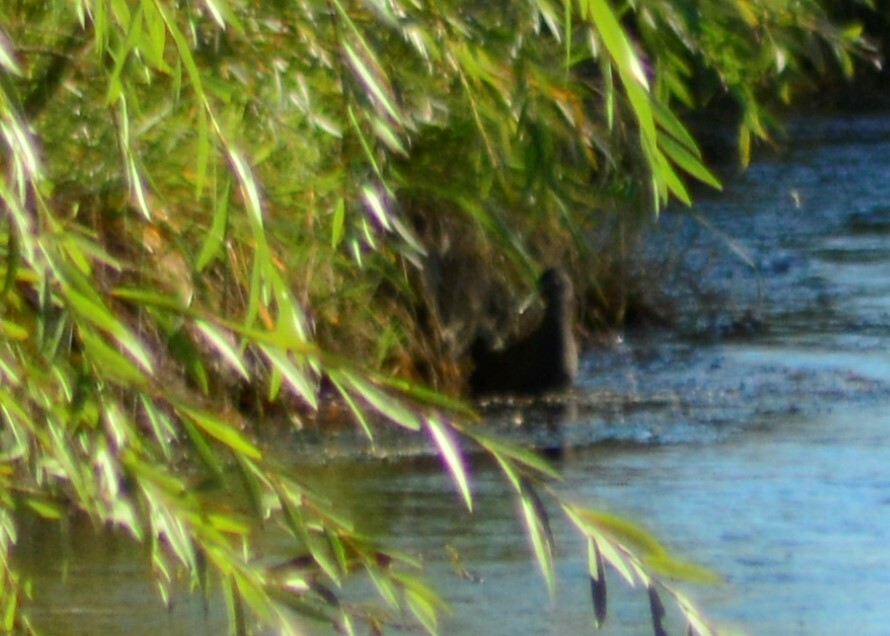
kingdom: Animalia
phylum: Chordata
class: Aves
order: Gruiformes
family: Rallidae
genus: Pardirallus
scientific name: Pardirallus sanguinolentus
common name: Plumbeous rail
